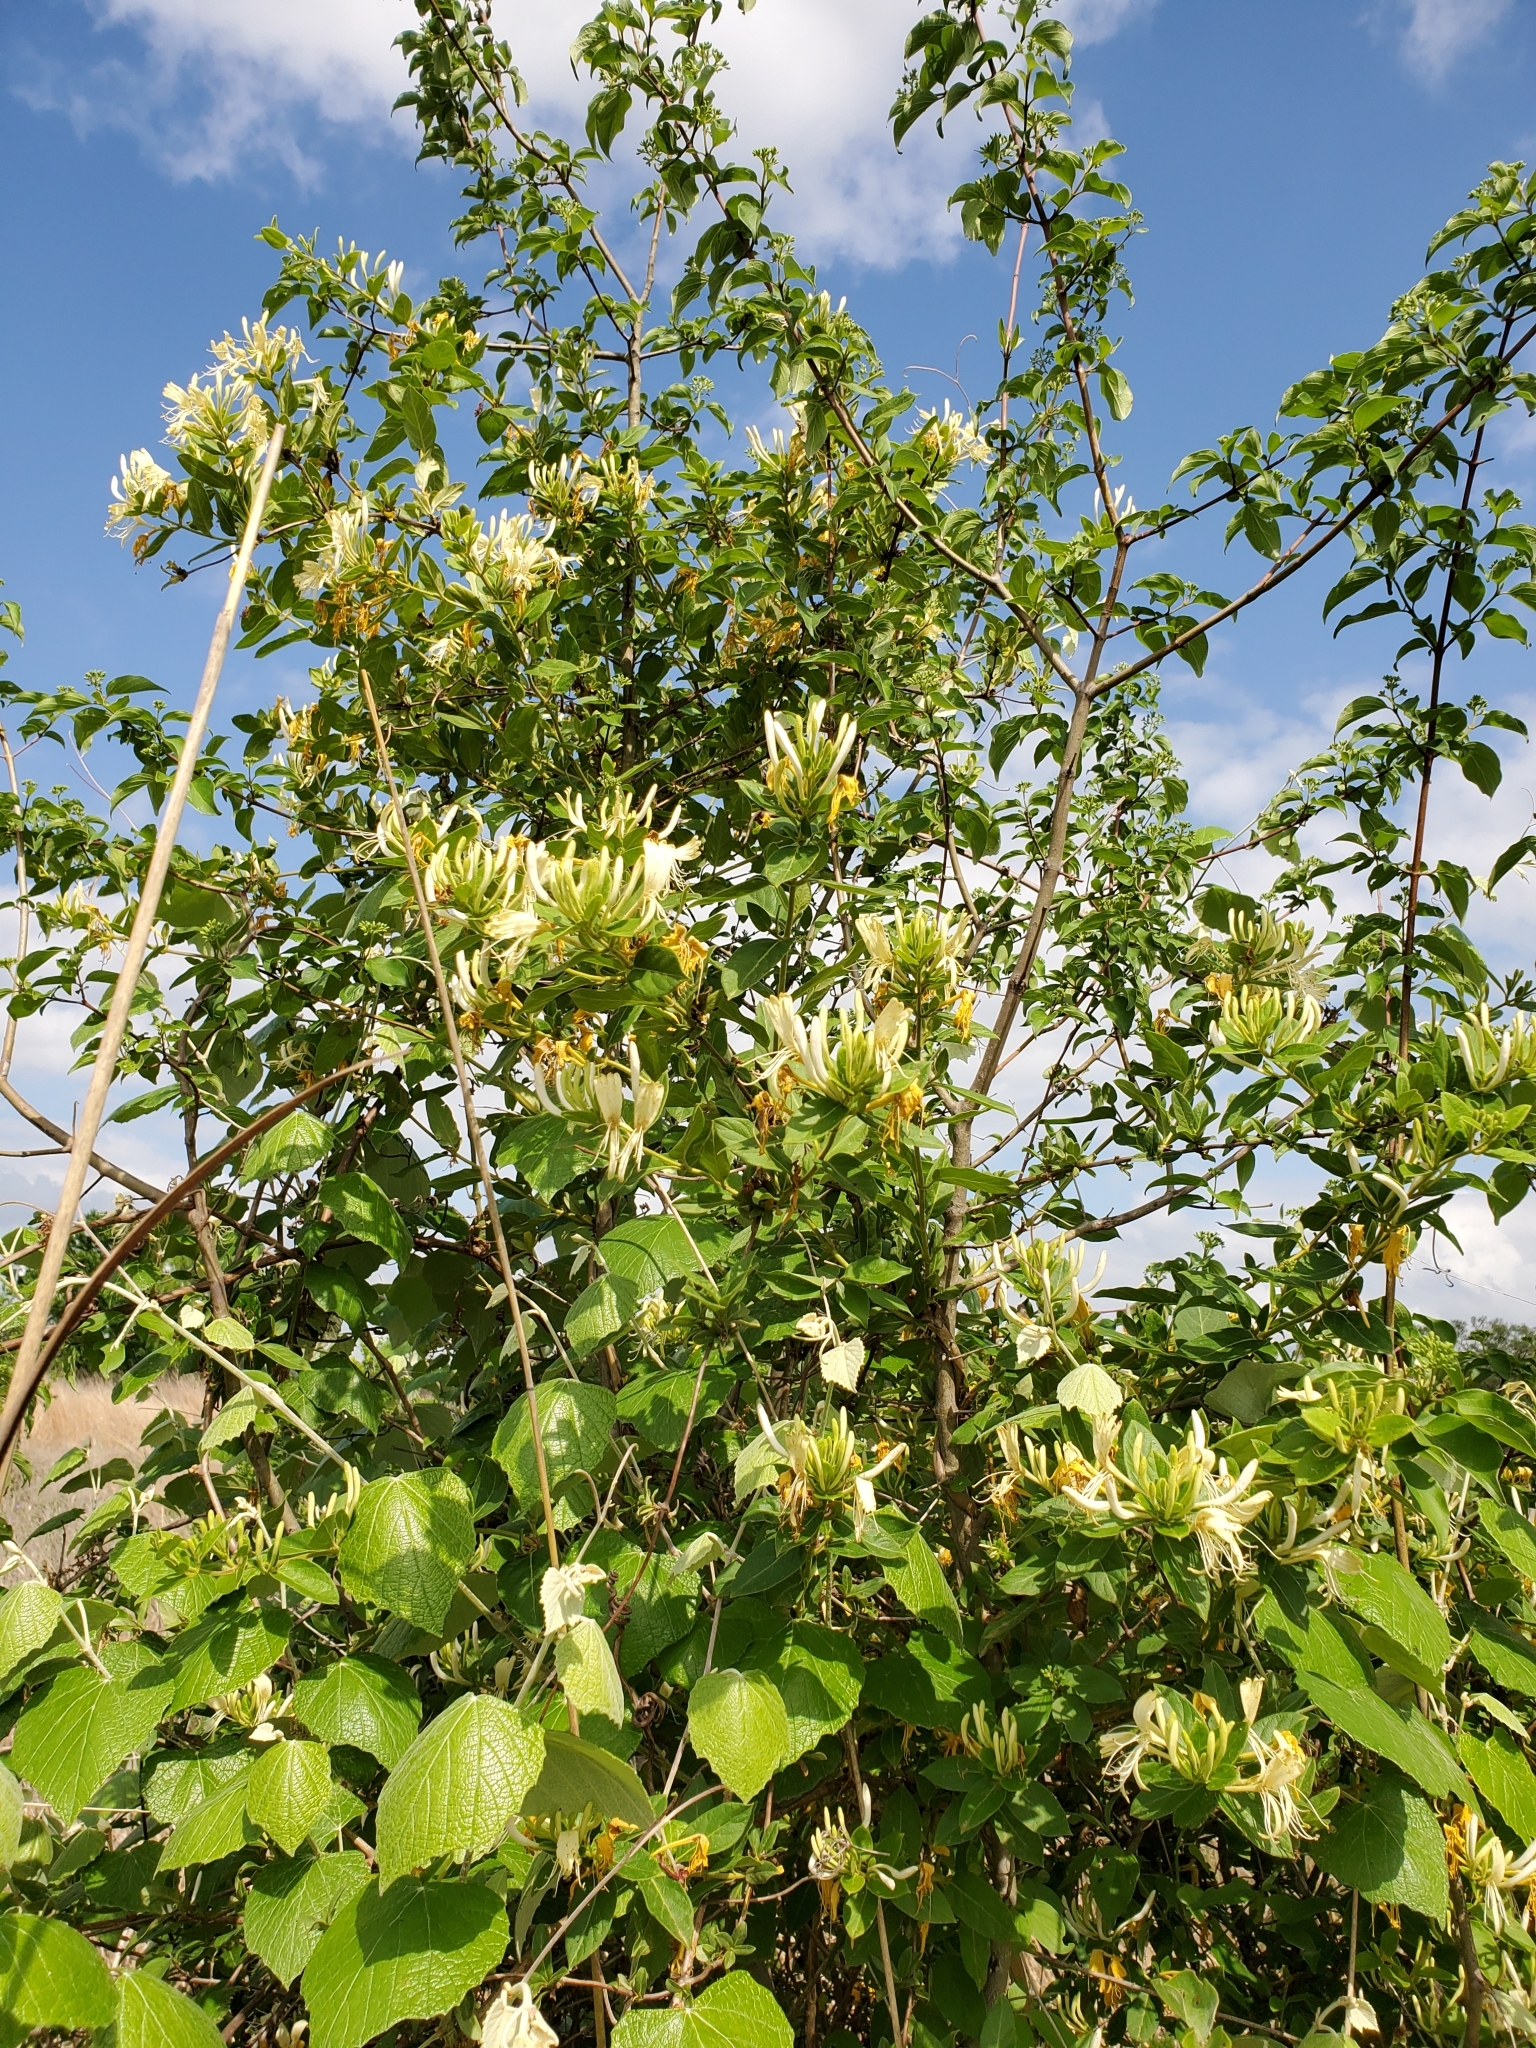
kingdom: Plantae
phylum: Tracheophyta
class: Magnoliopsida
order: Dipsacales
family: Caprifoliaceae
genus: Lonicera
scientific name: Lonicera japonica
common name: Japanese honeysuckle
